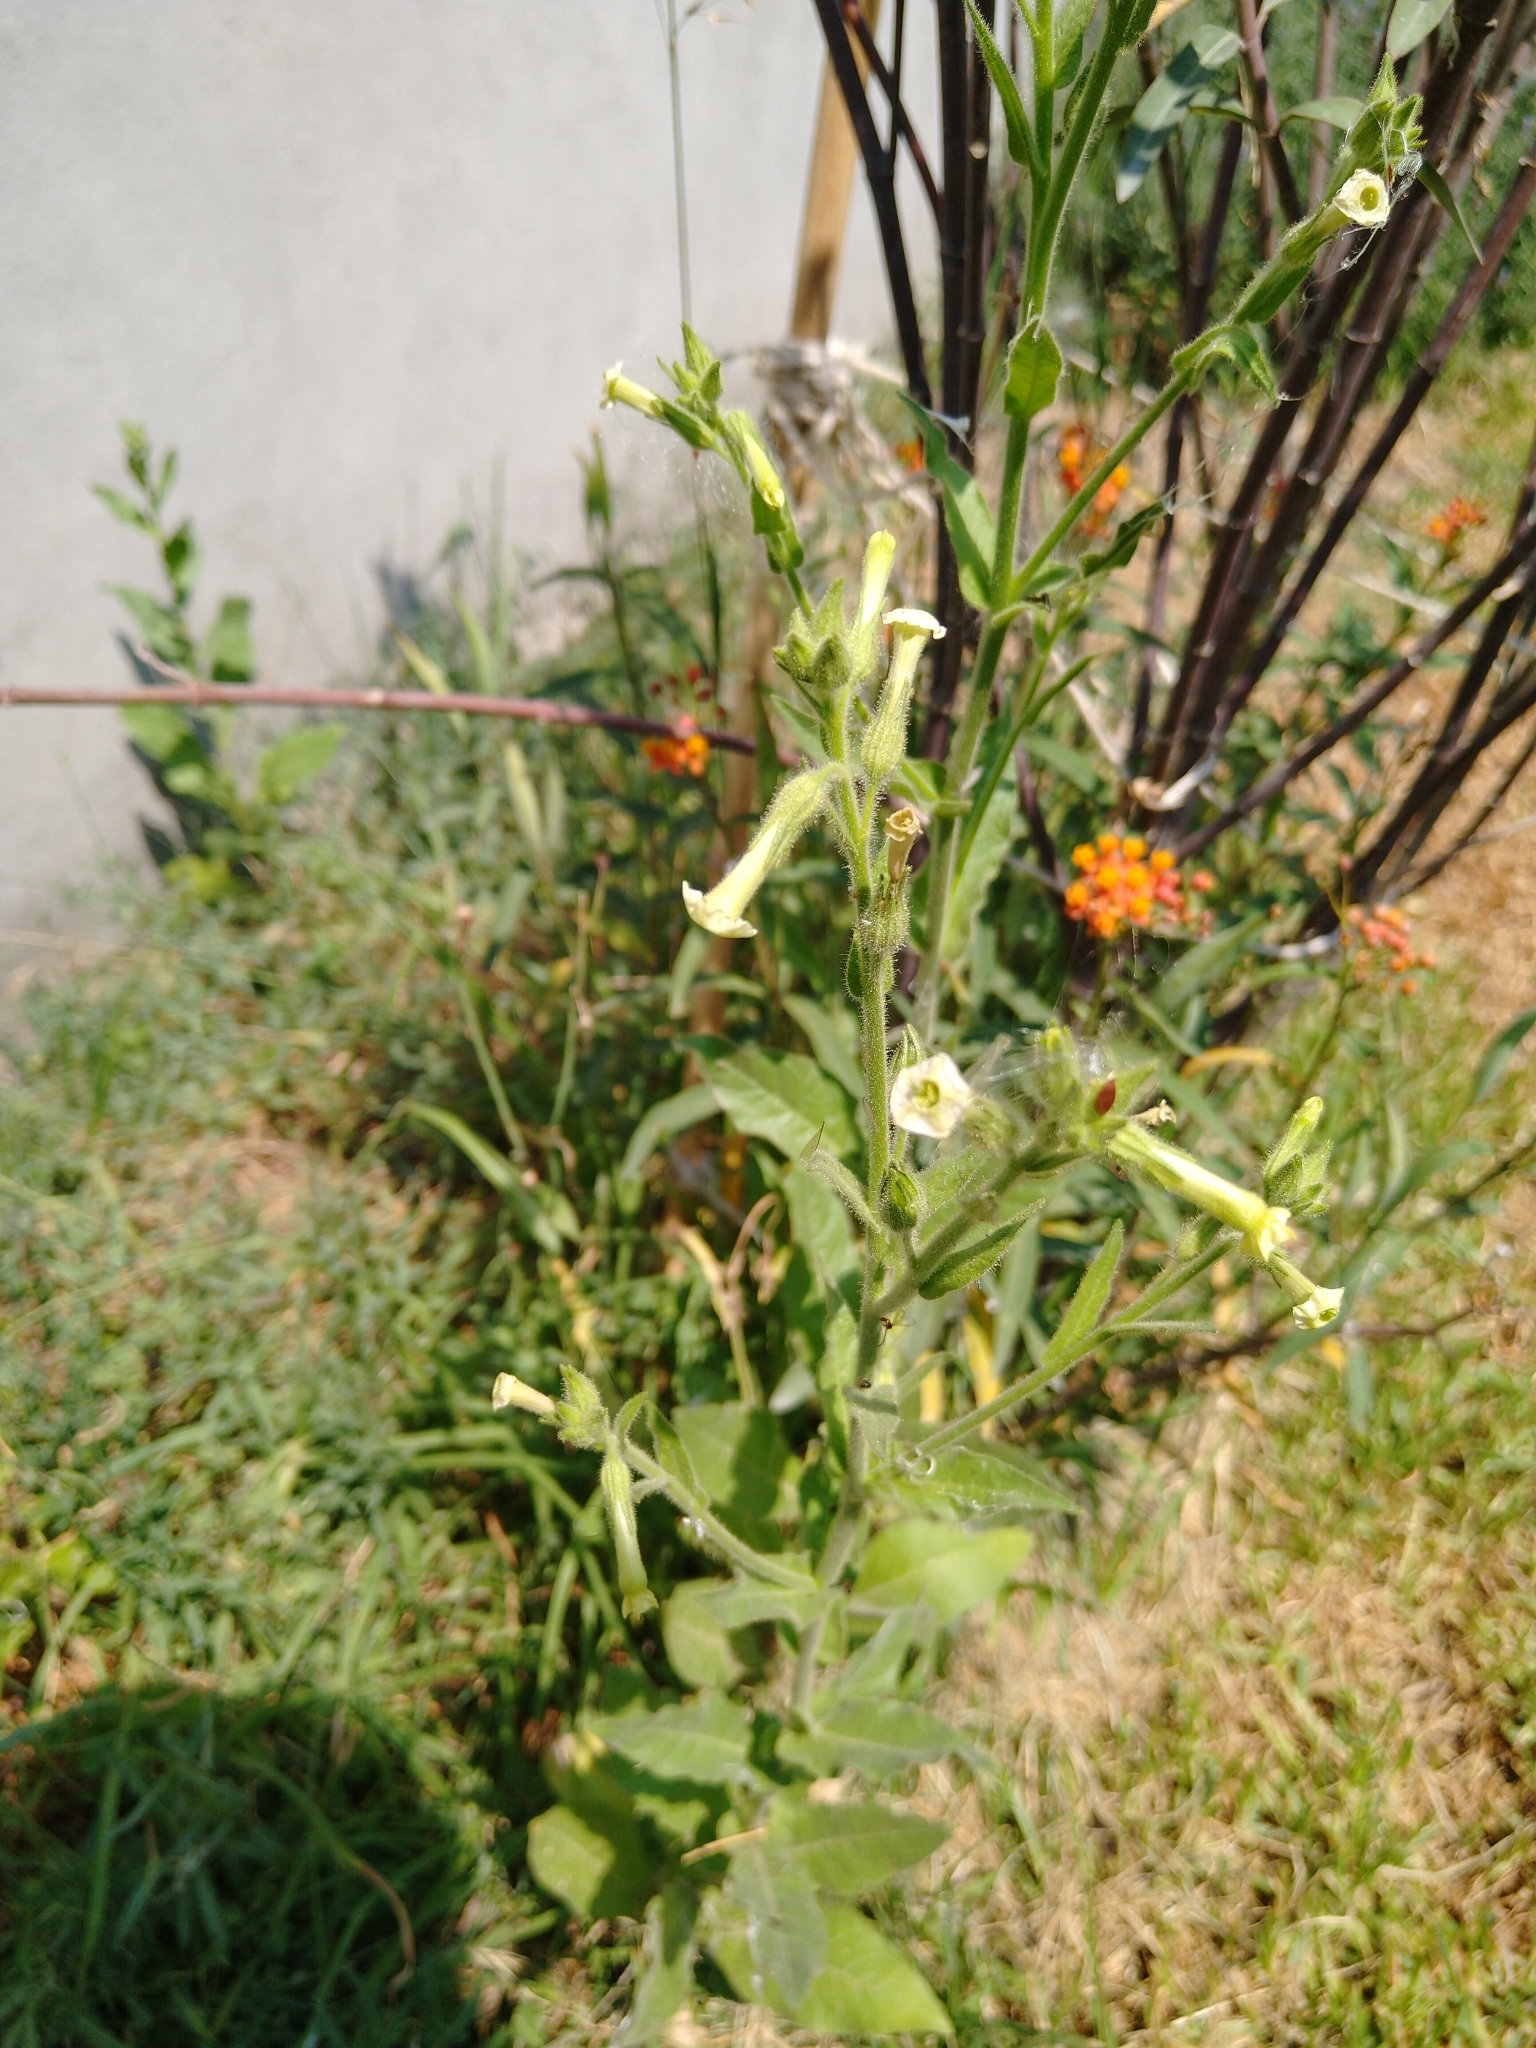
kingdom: Plantae
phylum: Tracheophyta
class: Magnoliopsida
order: Solanales
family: Solanaceae
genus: Nicotiana
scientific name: Nicotiana obtusifolia
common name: Desert tobacco
